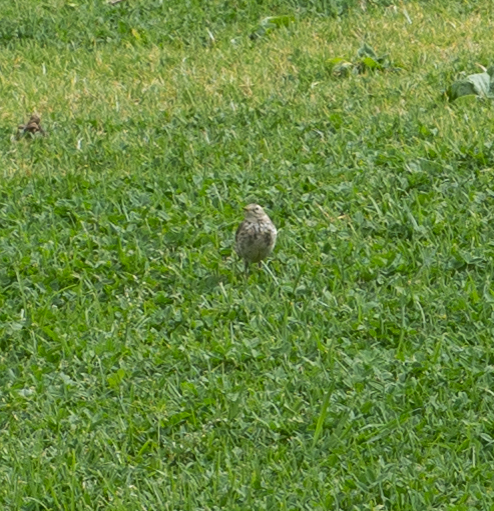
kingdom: Animalia
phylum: Chordata
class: Aves
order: Passeriformes
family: Motacillidae
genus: Anthus
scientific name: Anthus rubescens
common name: Buff-bellied pipit
